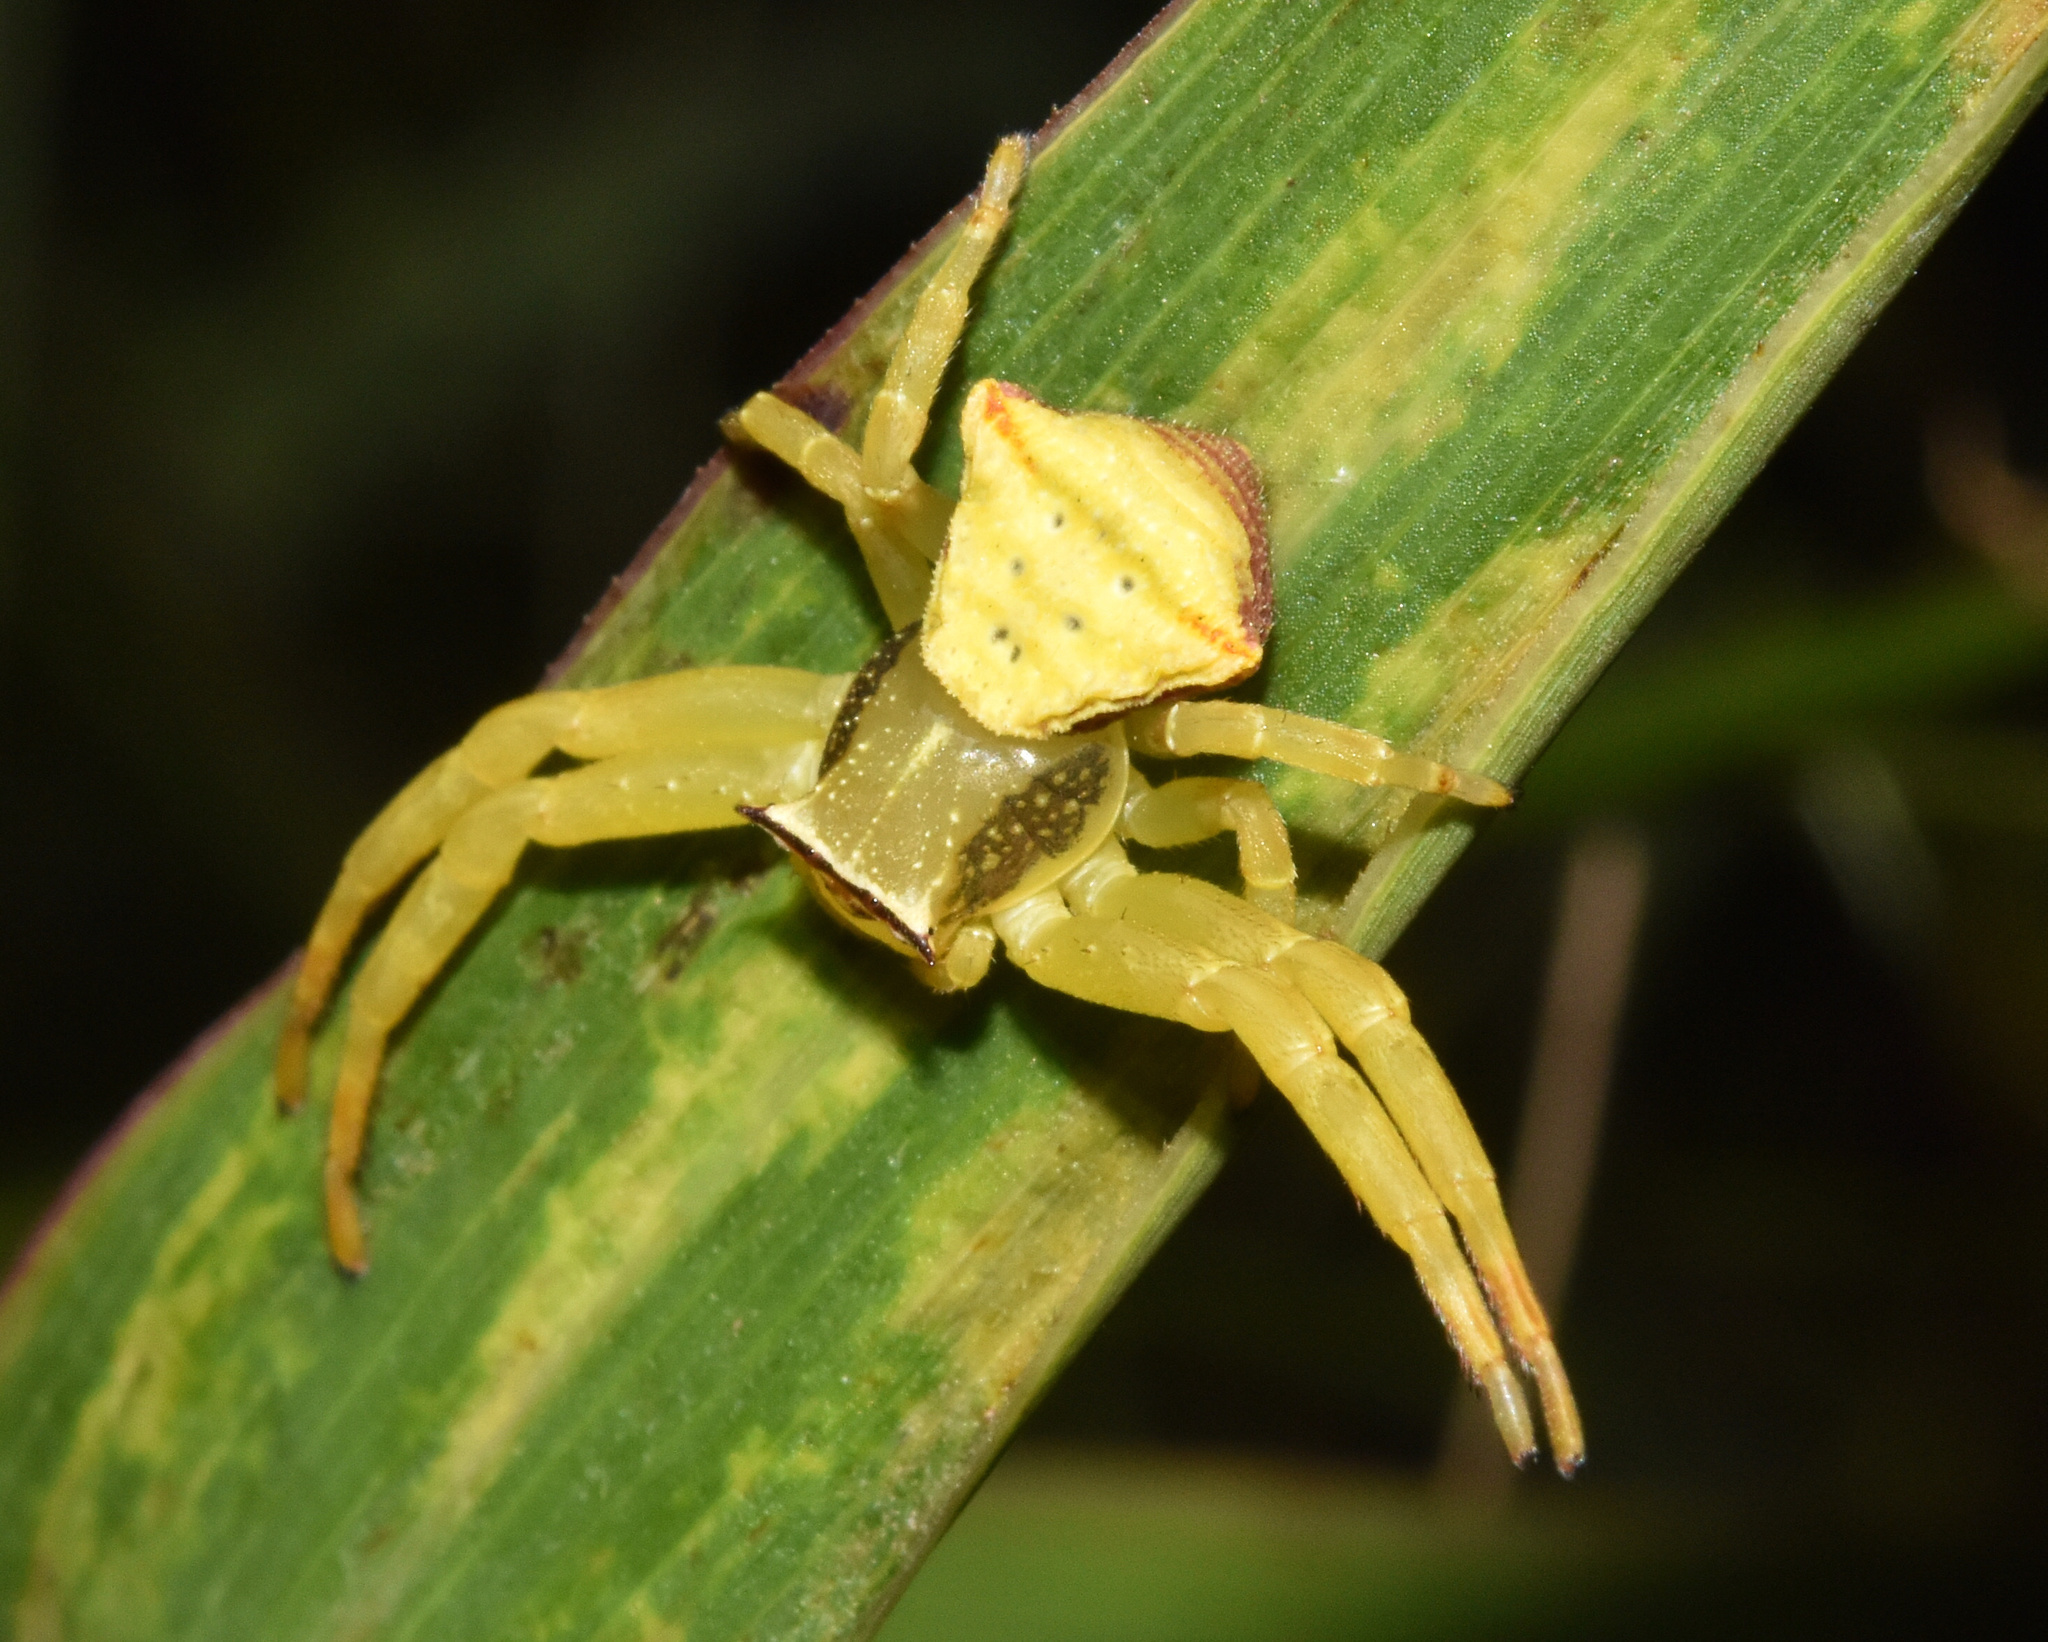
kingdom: Animalia
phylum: Arthropoda
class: Arachnida
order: Araneae
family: Thomisidae
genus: Thomisus
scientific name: Thomisus zuluanus
